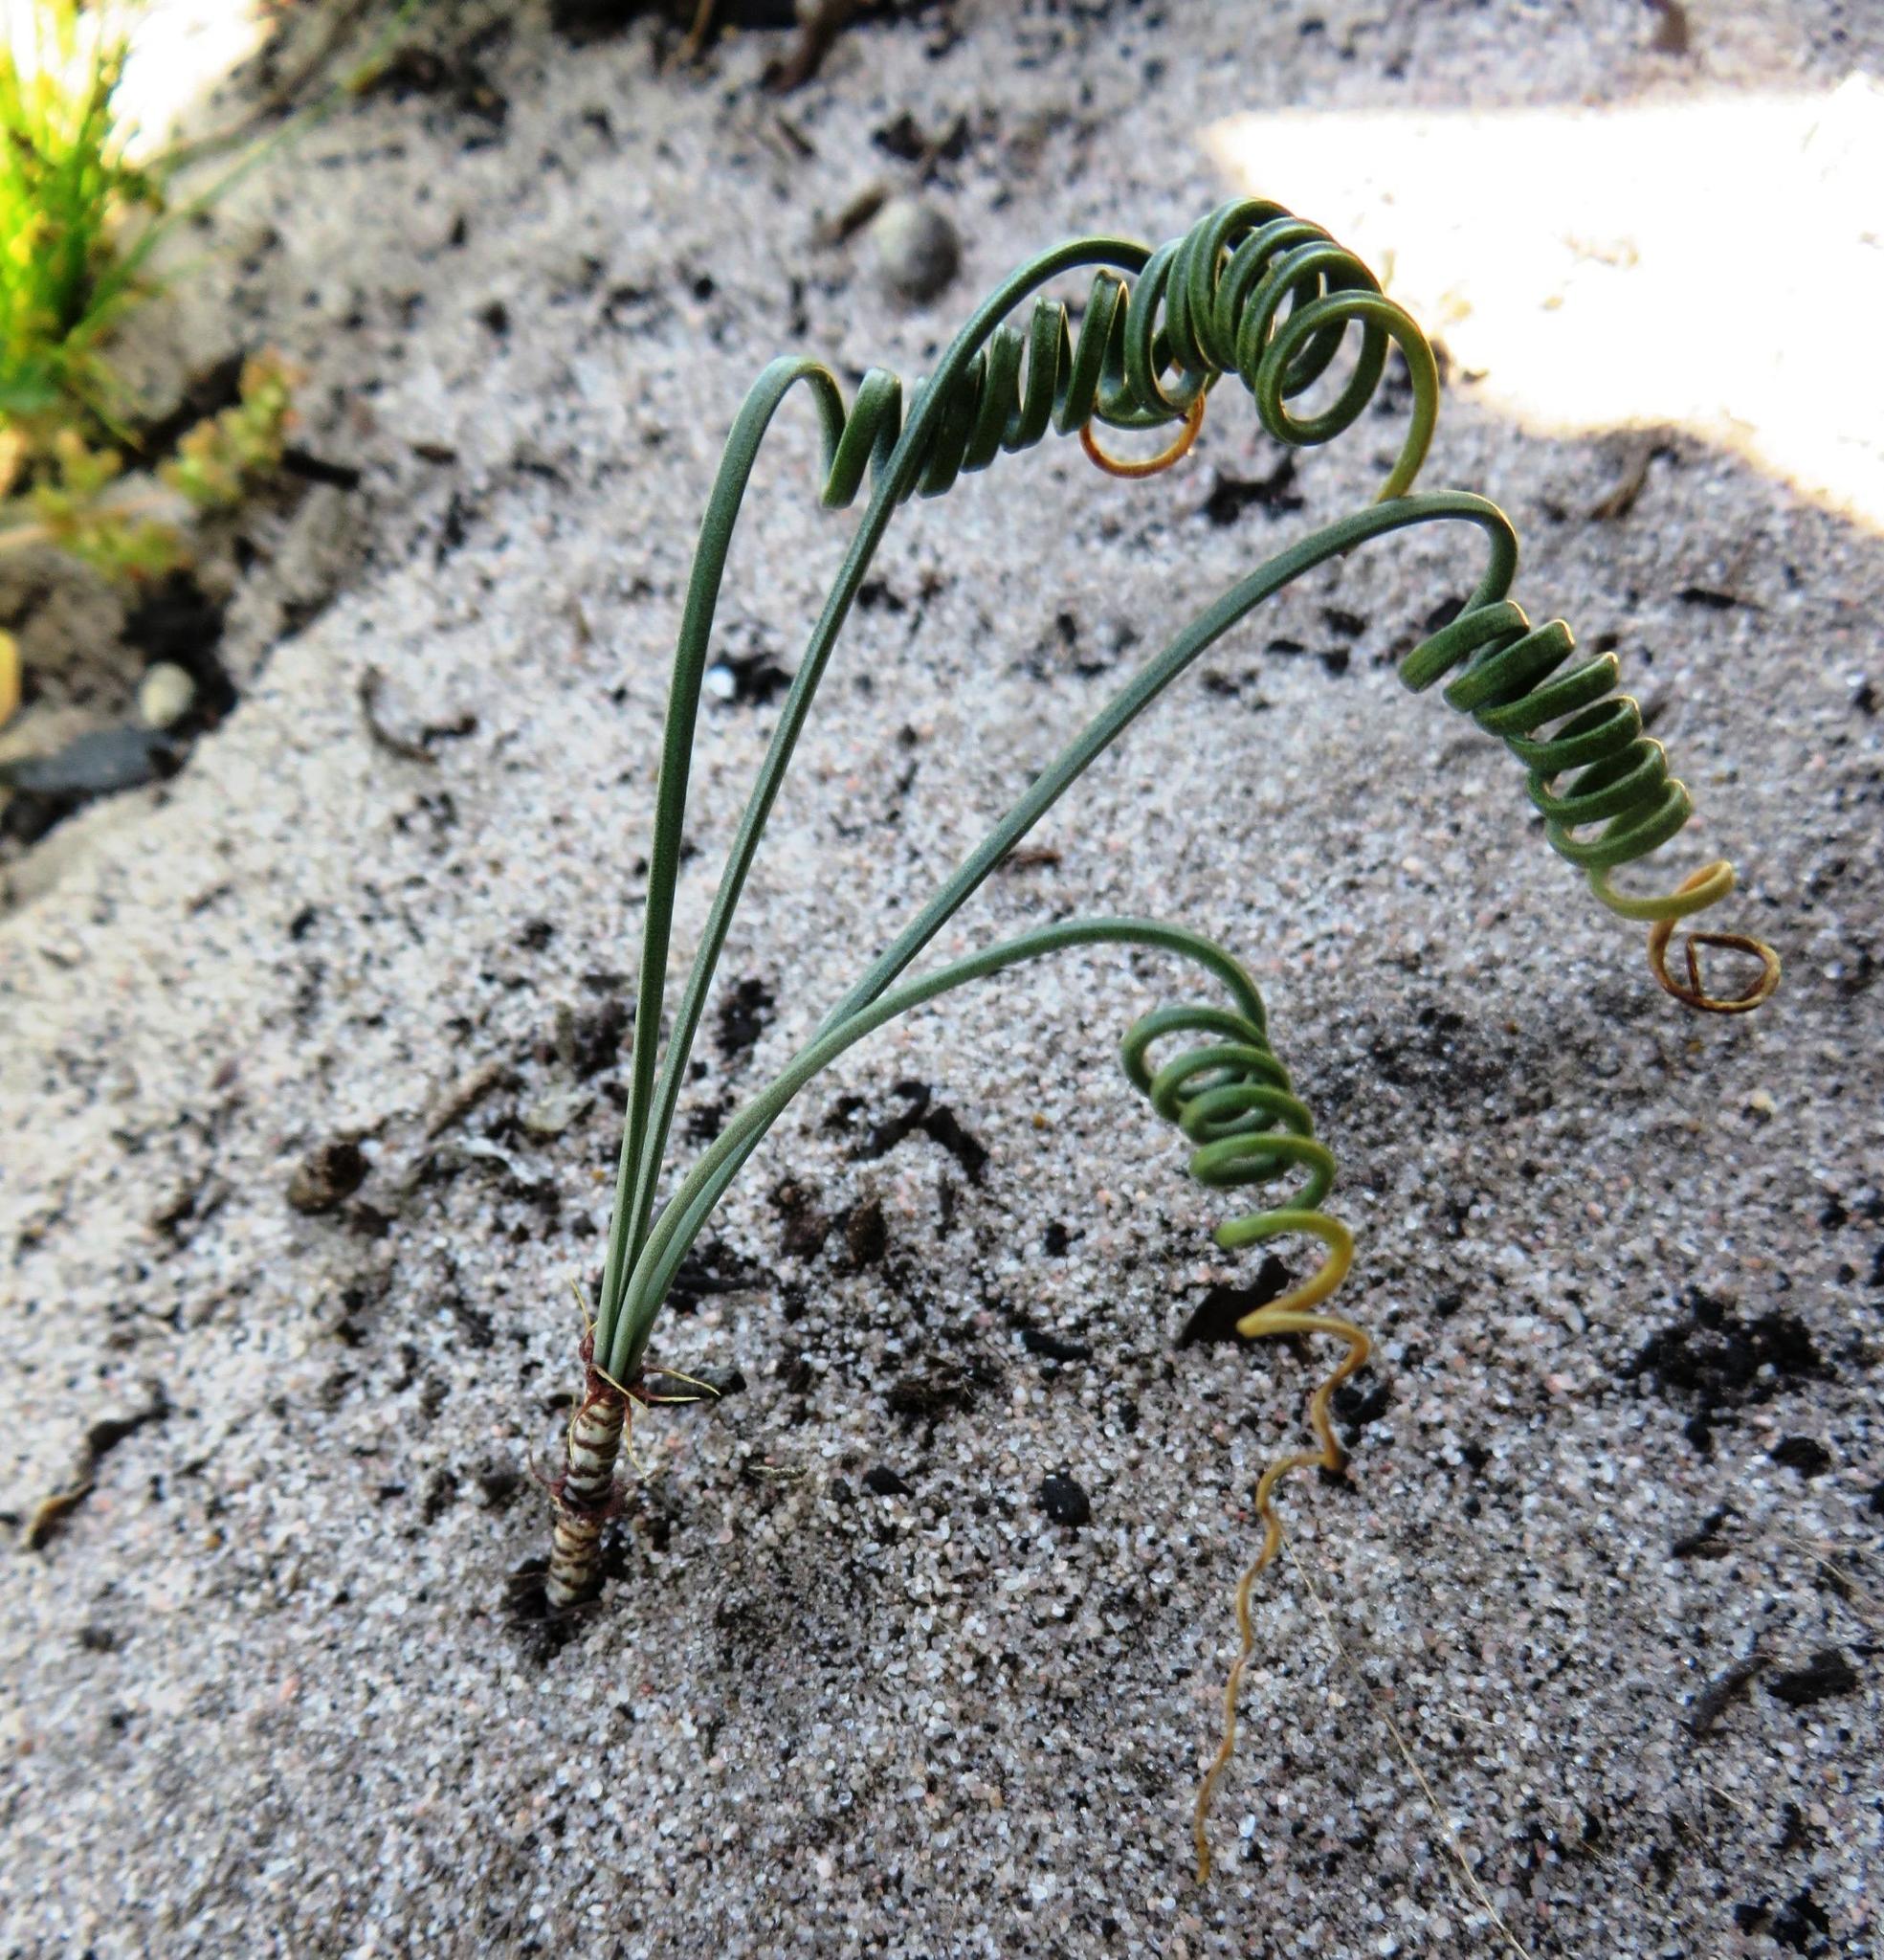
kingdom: Plantae
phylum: Tracheophyta
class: Liliopsida
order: Asparagales
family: Amaryllidaceae
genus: Gethyllis
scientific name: Gethyllis verticillata
